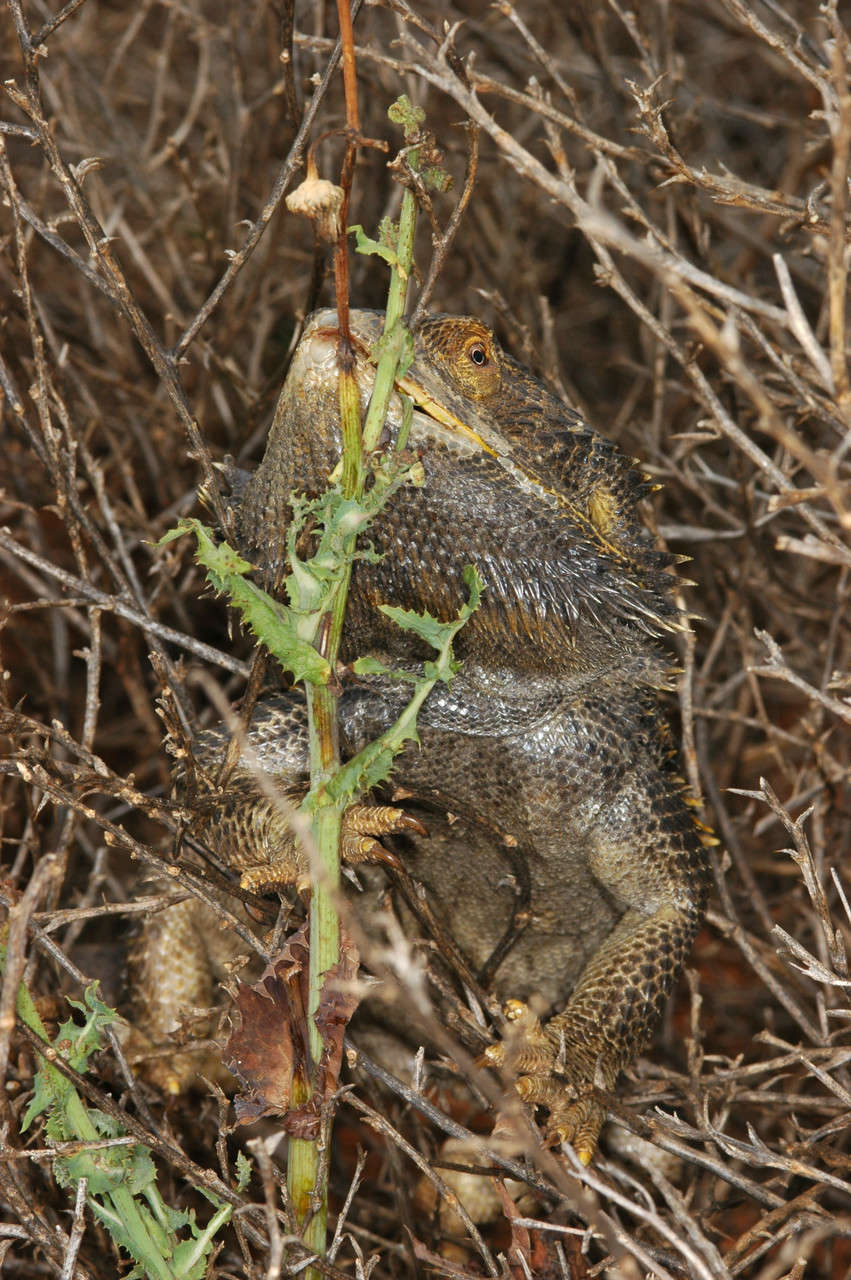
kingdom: Animalia
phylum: Chordata
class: Squamata
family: Agamidae
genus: Pogona
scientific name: Pogona vitticeps
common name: Central bearded dragon
